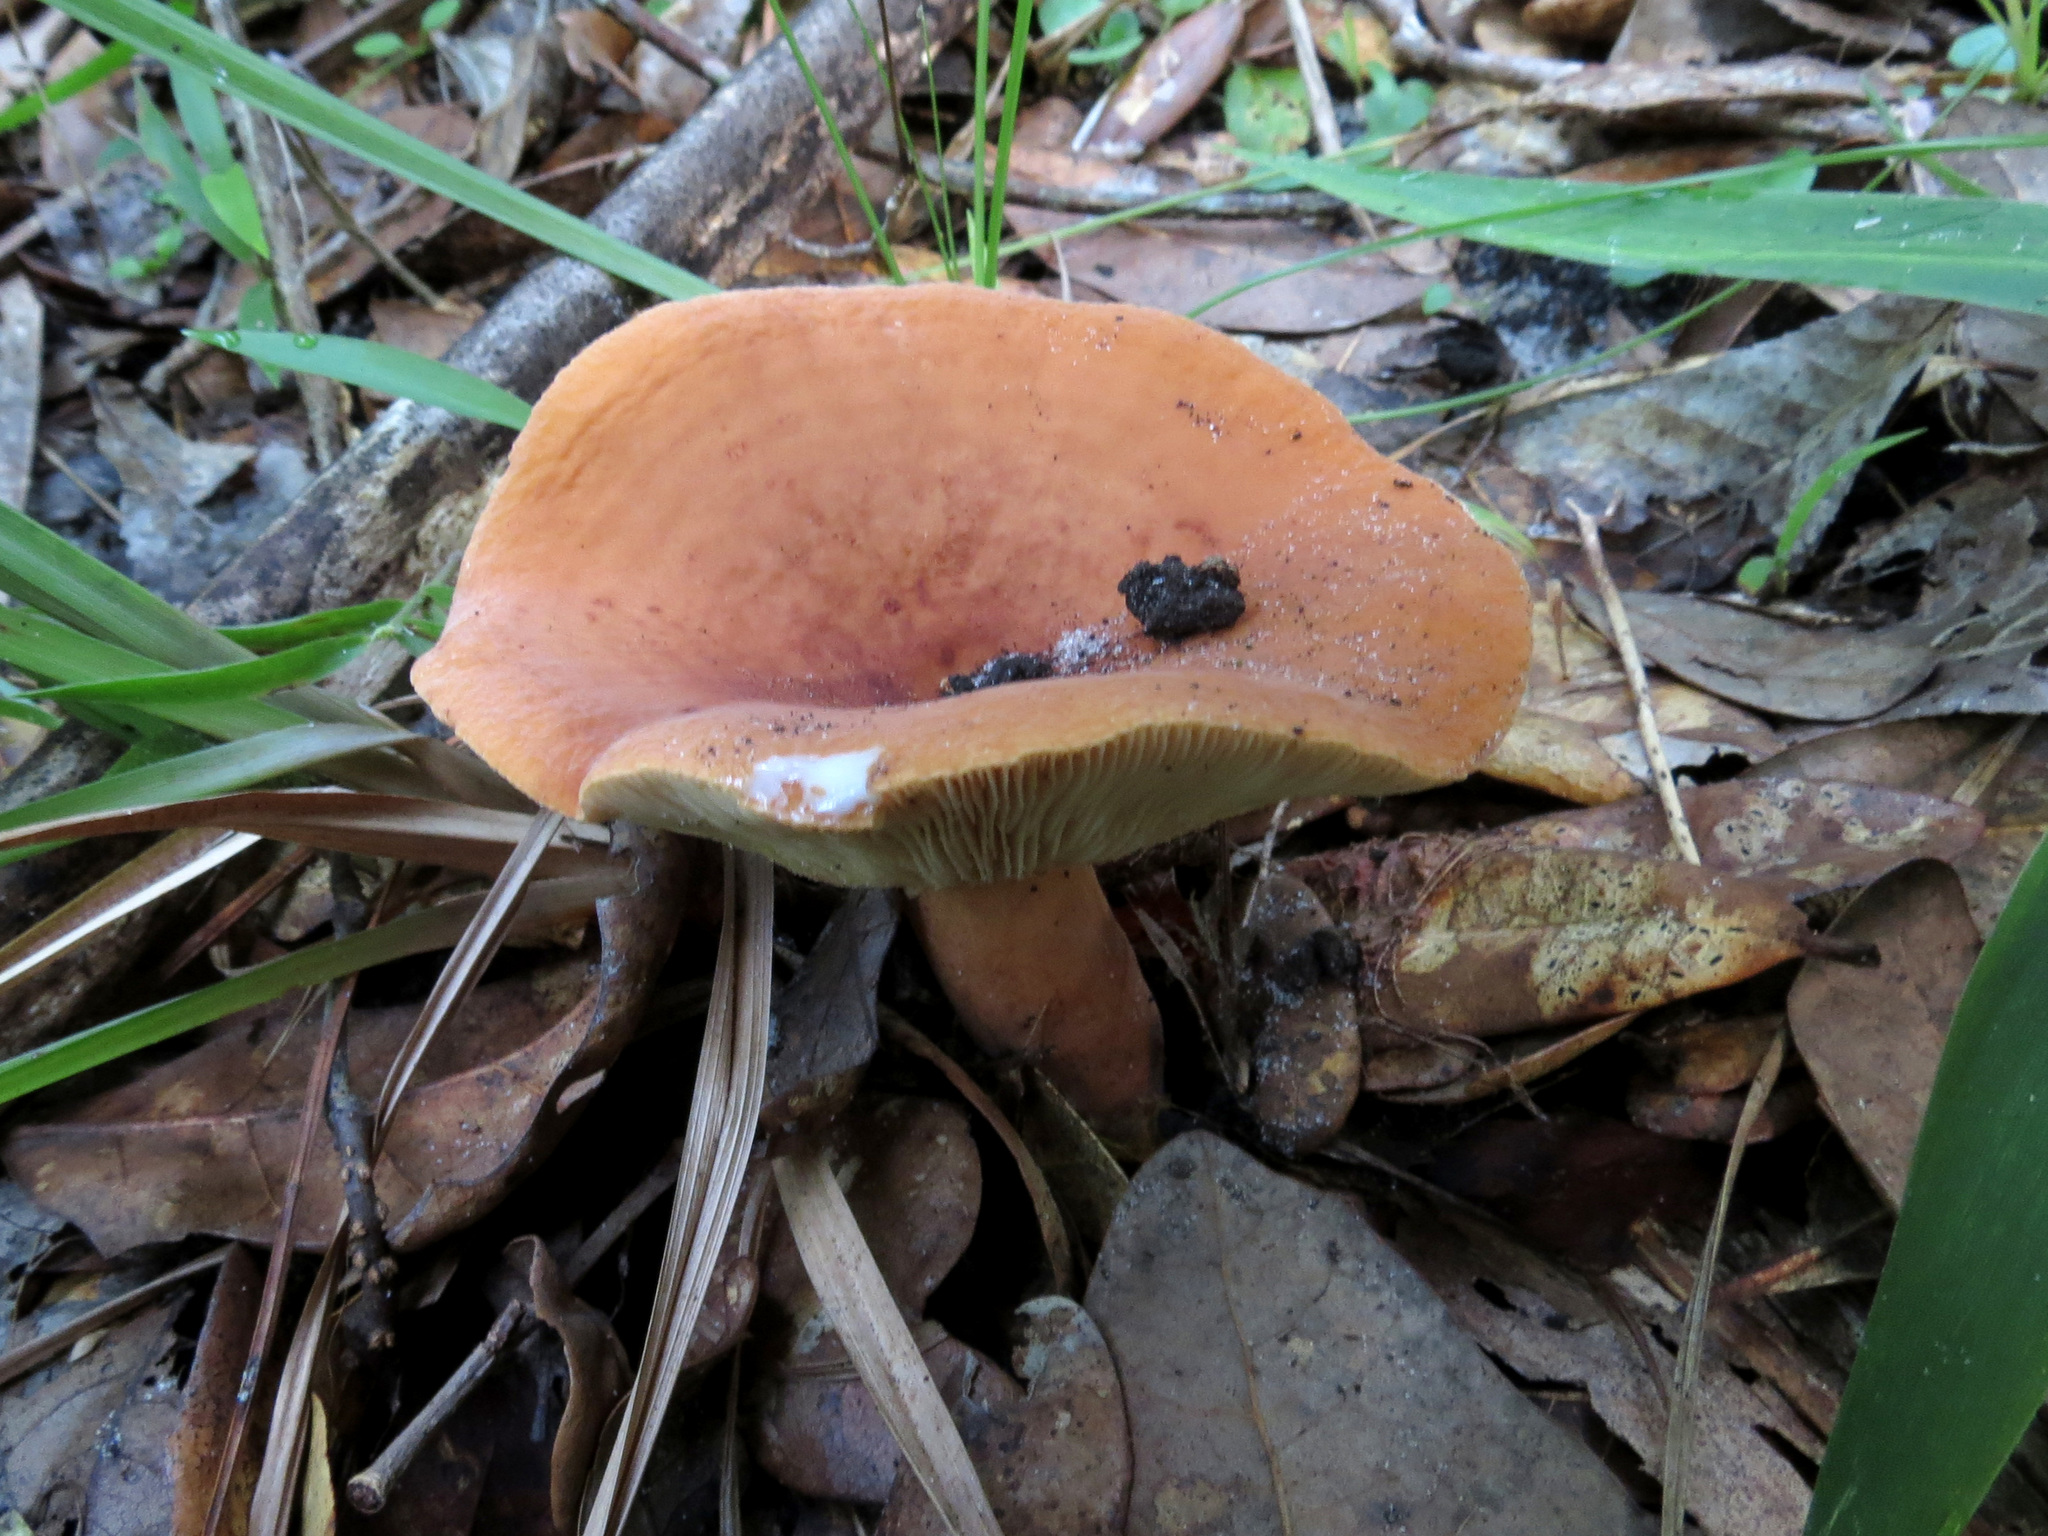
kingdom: Fungi
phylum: Basidiomycota
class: Agaricomycetes
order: Russulales
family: Russulaceae
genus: Lactifluus
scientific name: Lactifluus volemus
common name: Fishy milkcap
